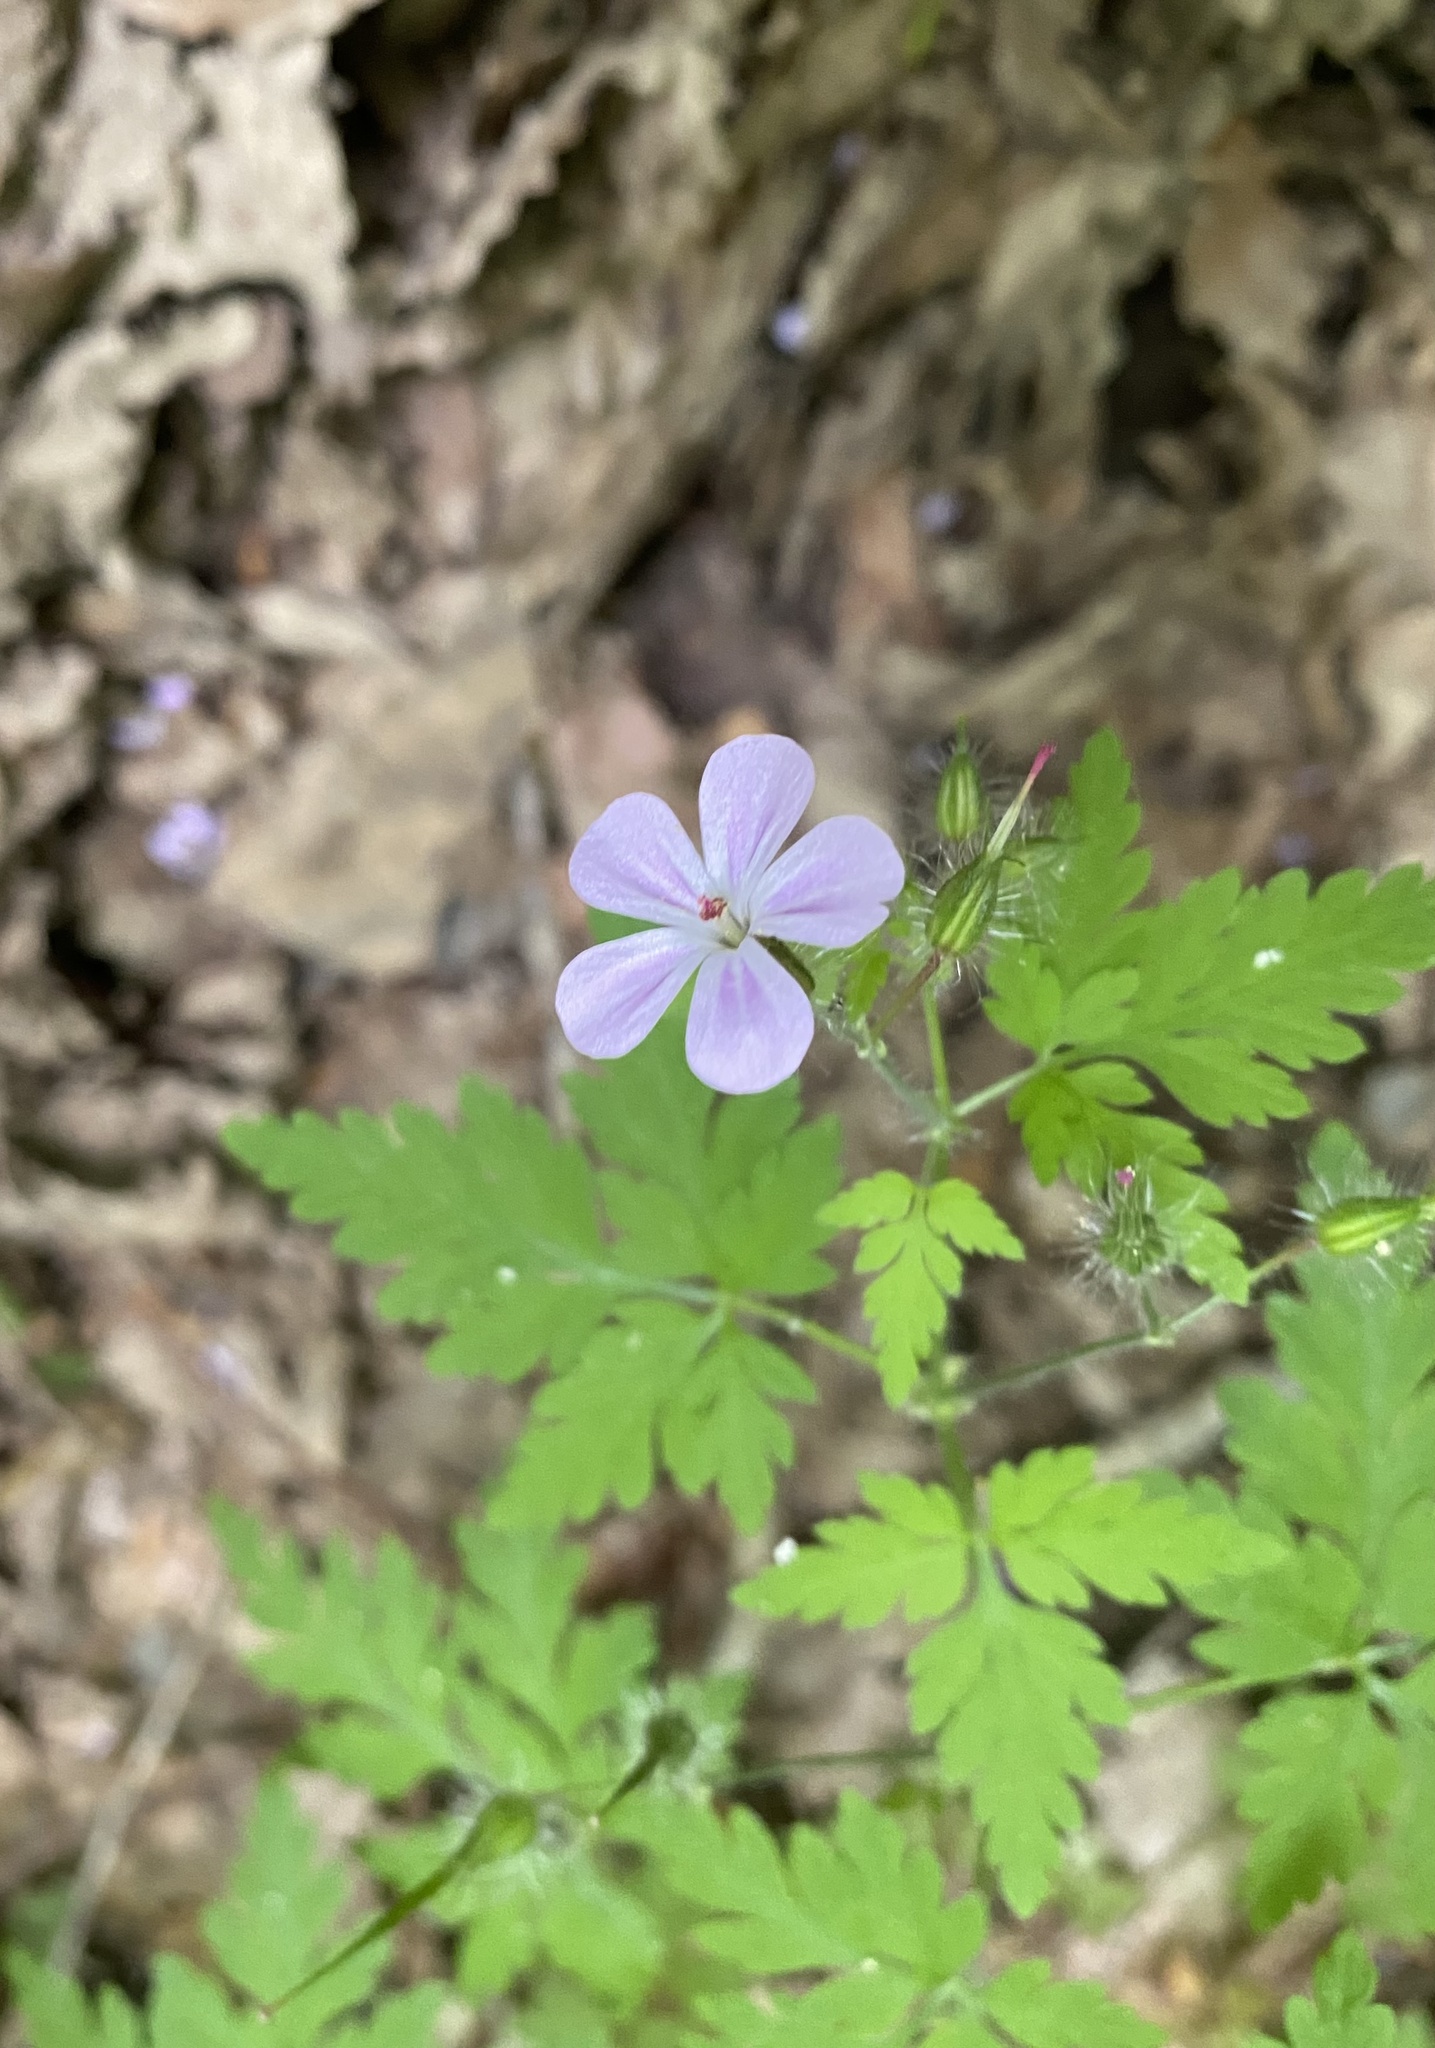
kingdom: Plantae
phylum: Tracheophyta
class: Magnoliopsida
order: Geraniales
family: Geraniaceae
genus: Geranium
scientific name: Geranium robertianum
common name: Herb-robert
